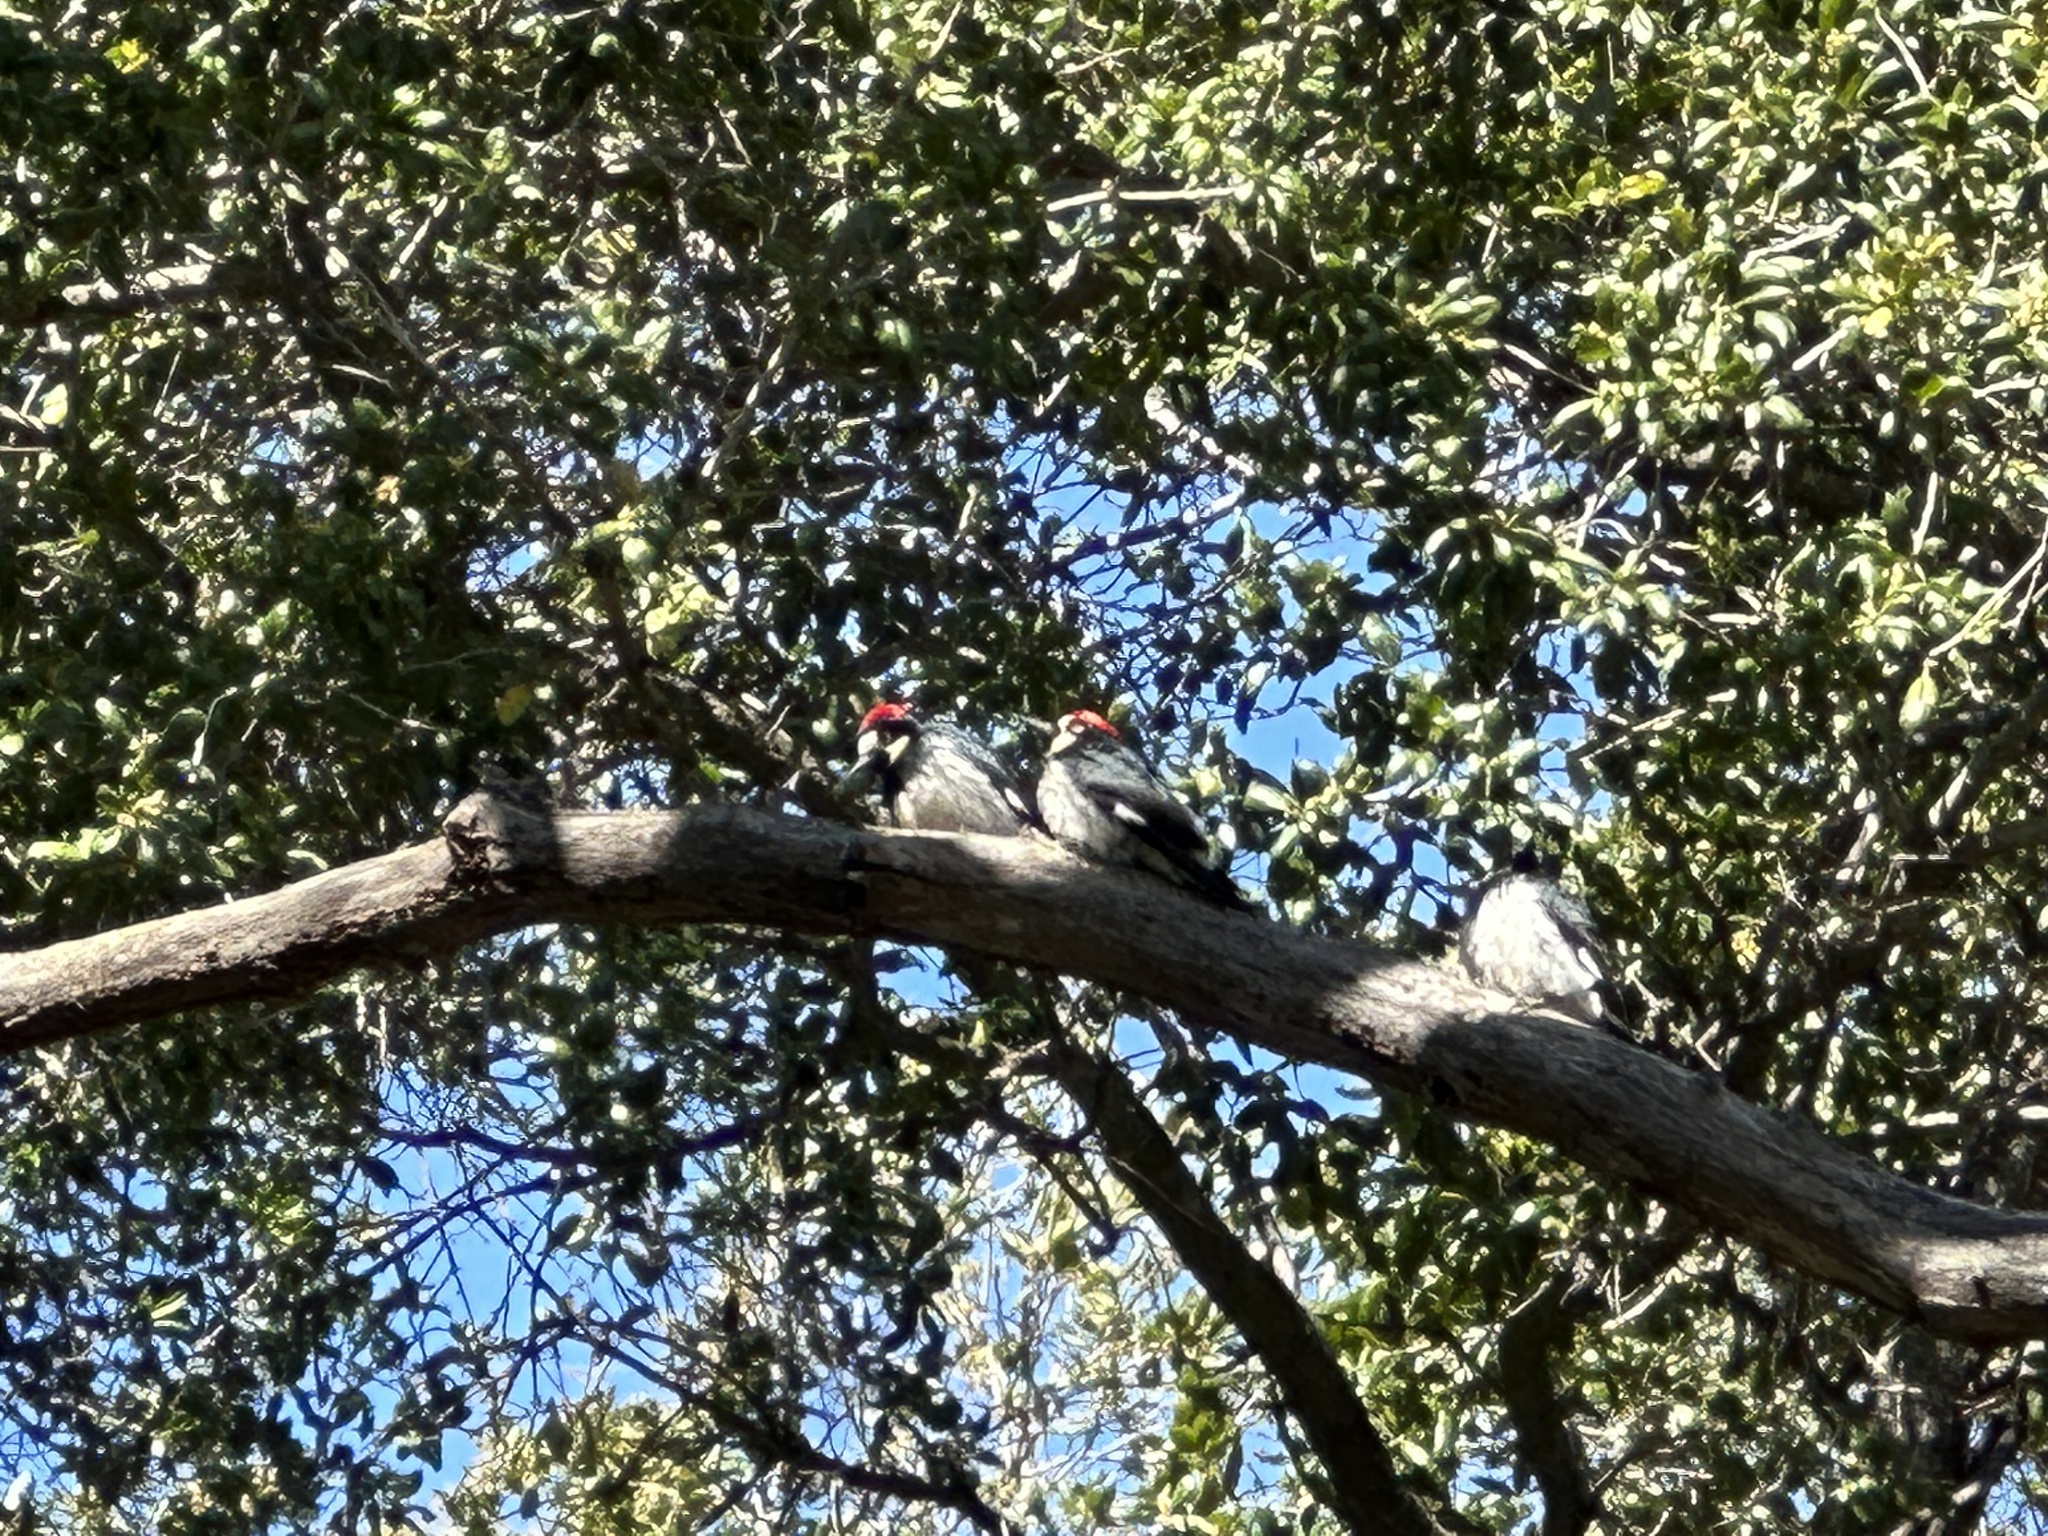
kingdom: Animalia
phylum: Chordata
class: Aves
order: Piciformes
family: Picidae
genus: Melanerpes
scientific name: Melanerpes formicivorus
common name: Acorn woodpecker
